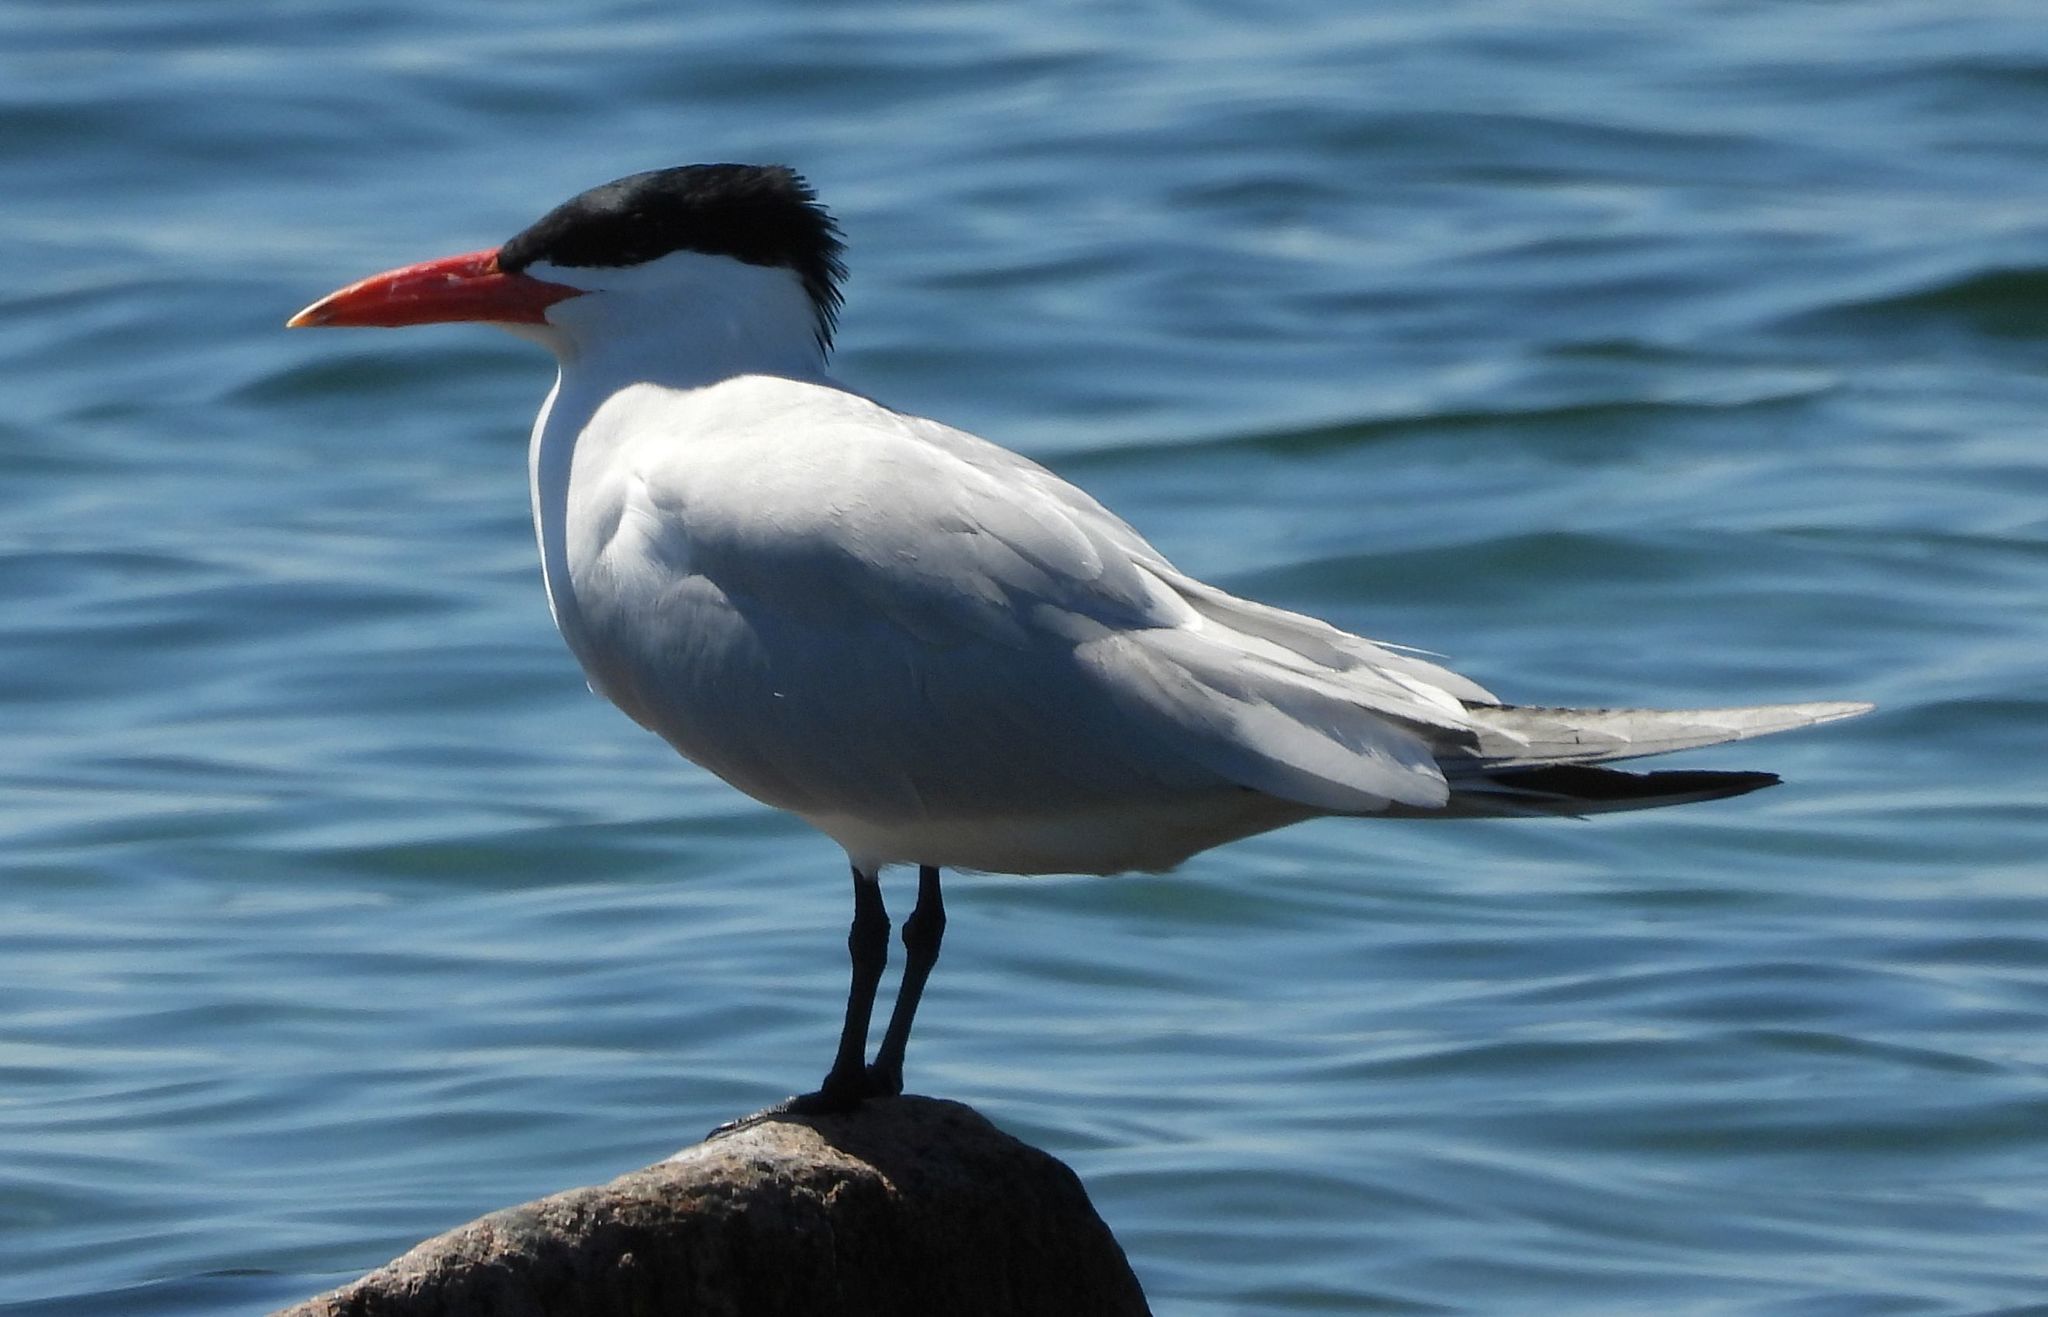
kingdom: Animalia
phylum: Chordata
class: Aves
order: Charadriiformes
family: Laridae
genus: Hydroprogne
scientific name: Hydroprogne caspia
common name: Caspian tern
